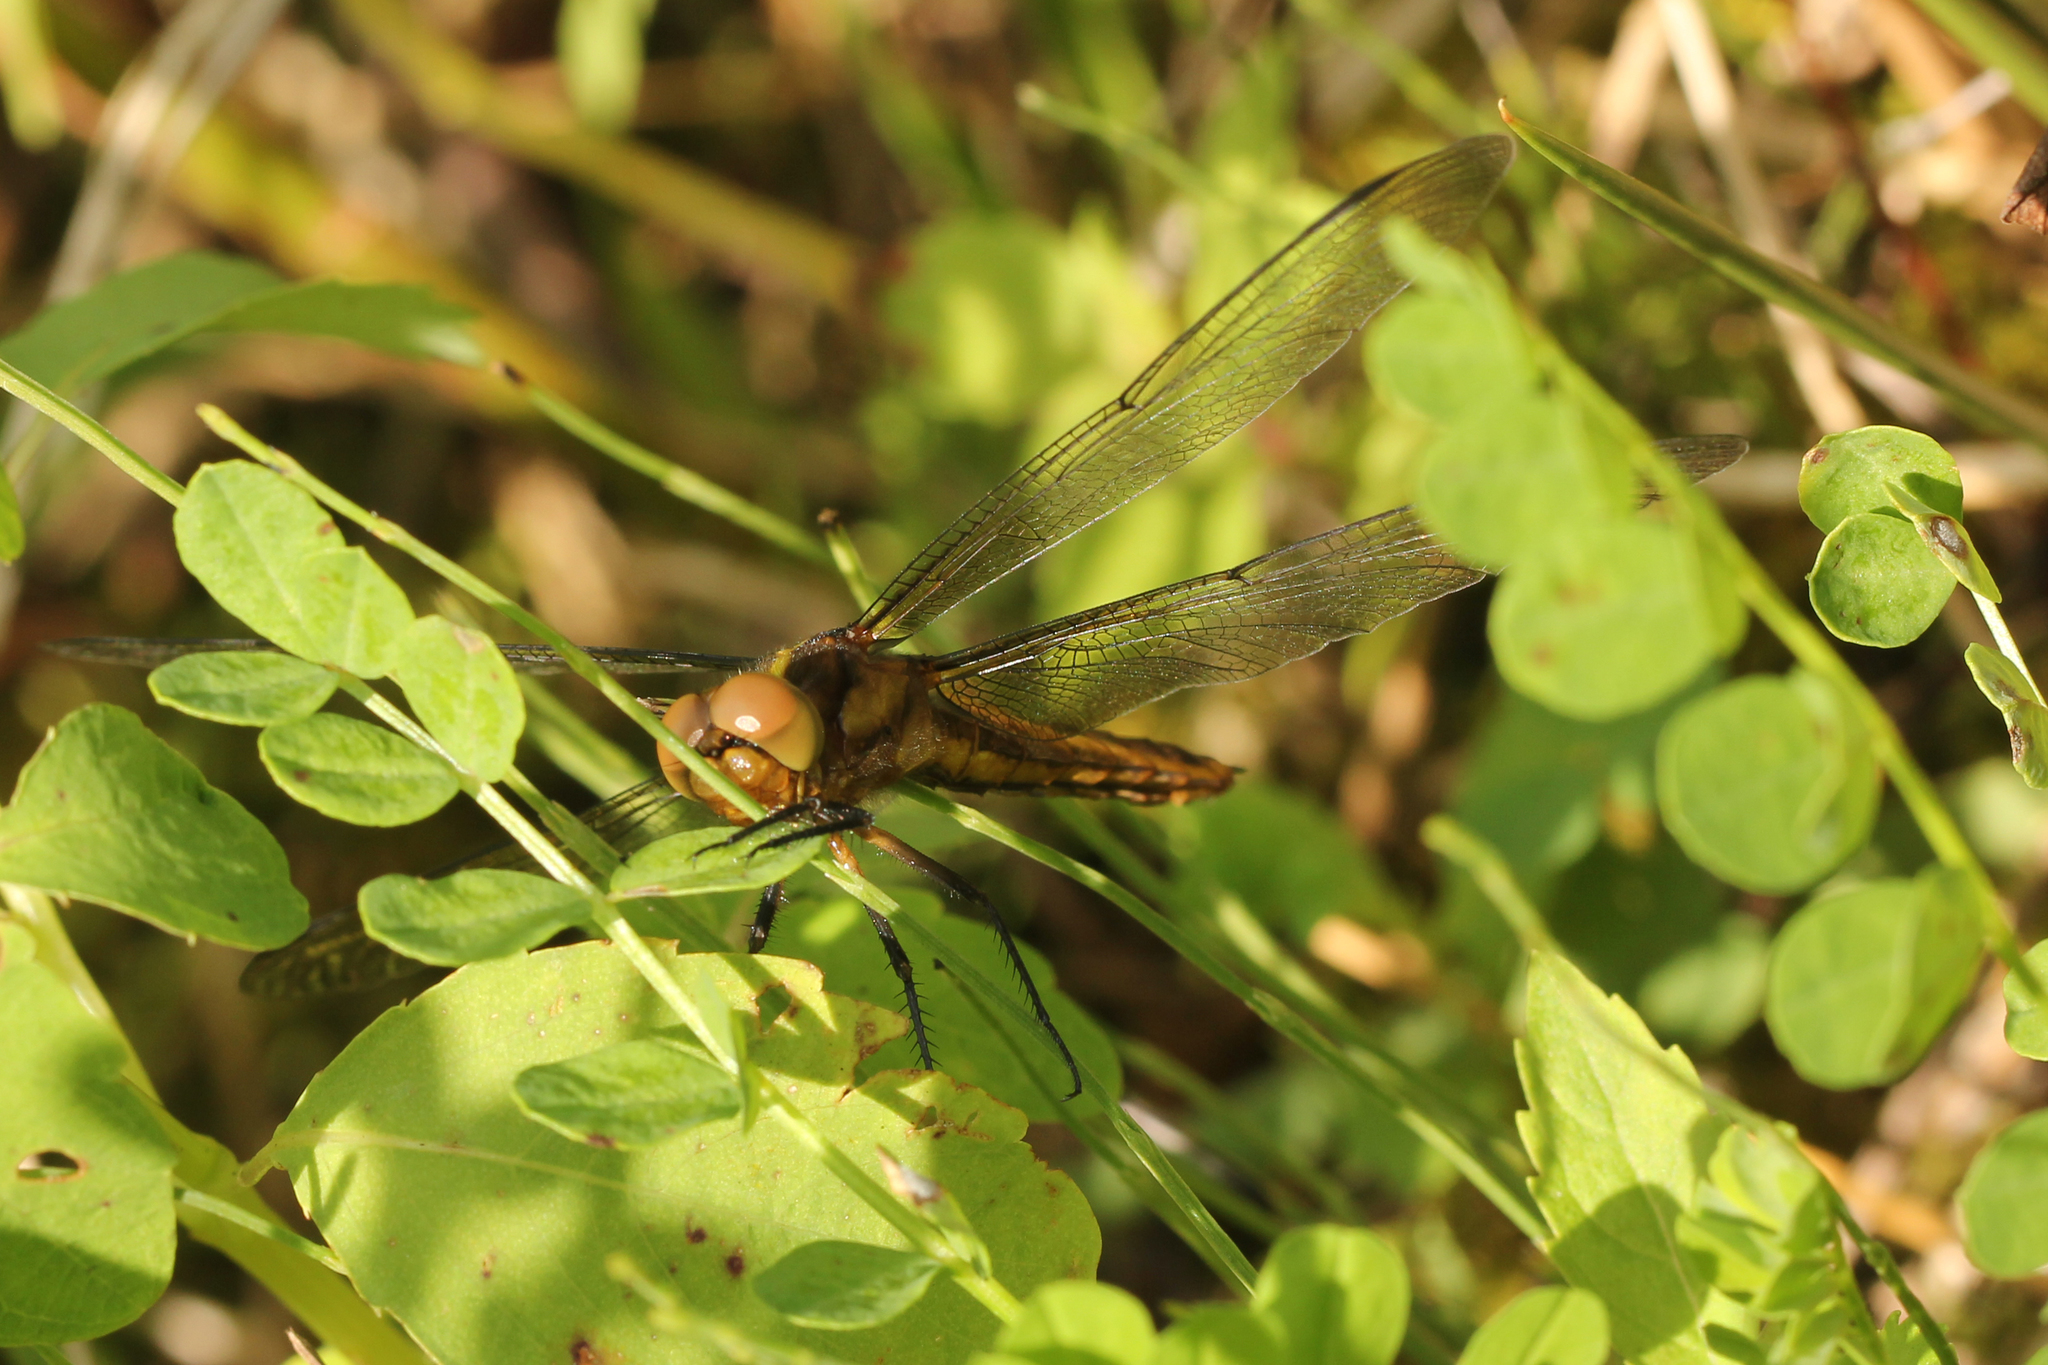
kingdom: Animalia
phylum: Arthropoda
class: Insecta
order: Odonata
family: Libellulidae
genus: Libellula
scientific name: Libellula luctuosa
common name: Widow skimmer
